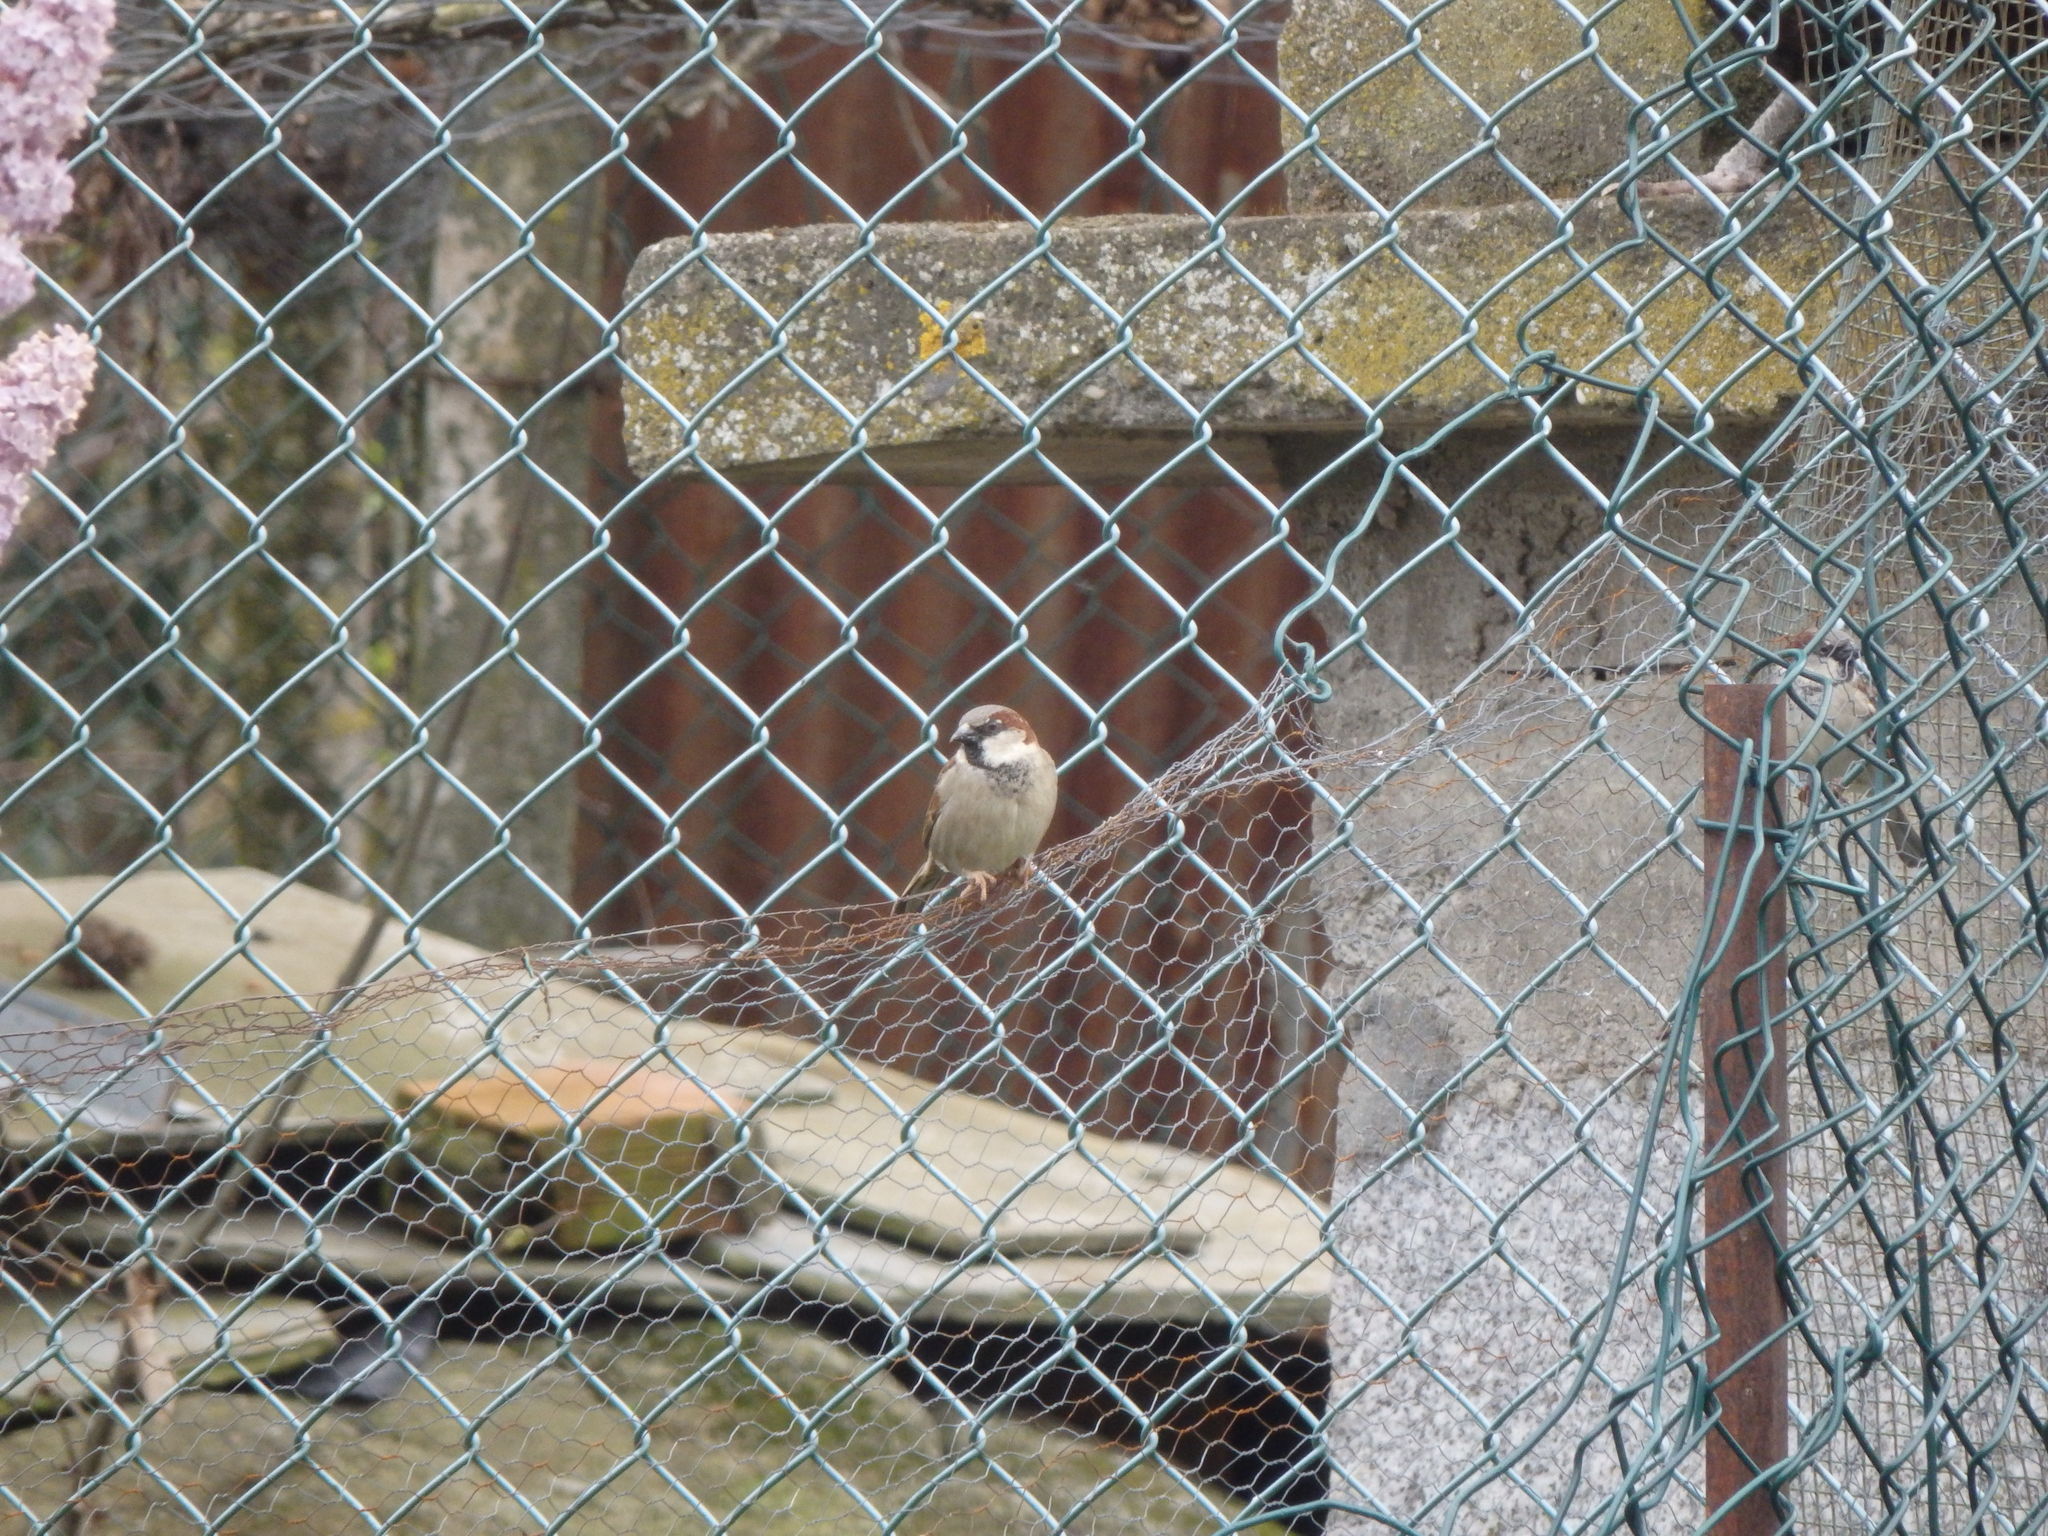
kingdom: Animalia
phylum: Chordata
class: Aves
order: Passeriformes
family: Passeridae
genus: Passer
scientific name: Passer domesticus
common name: House sparrow
